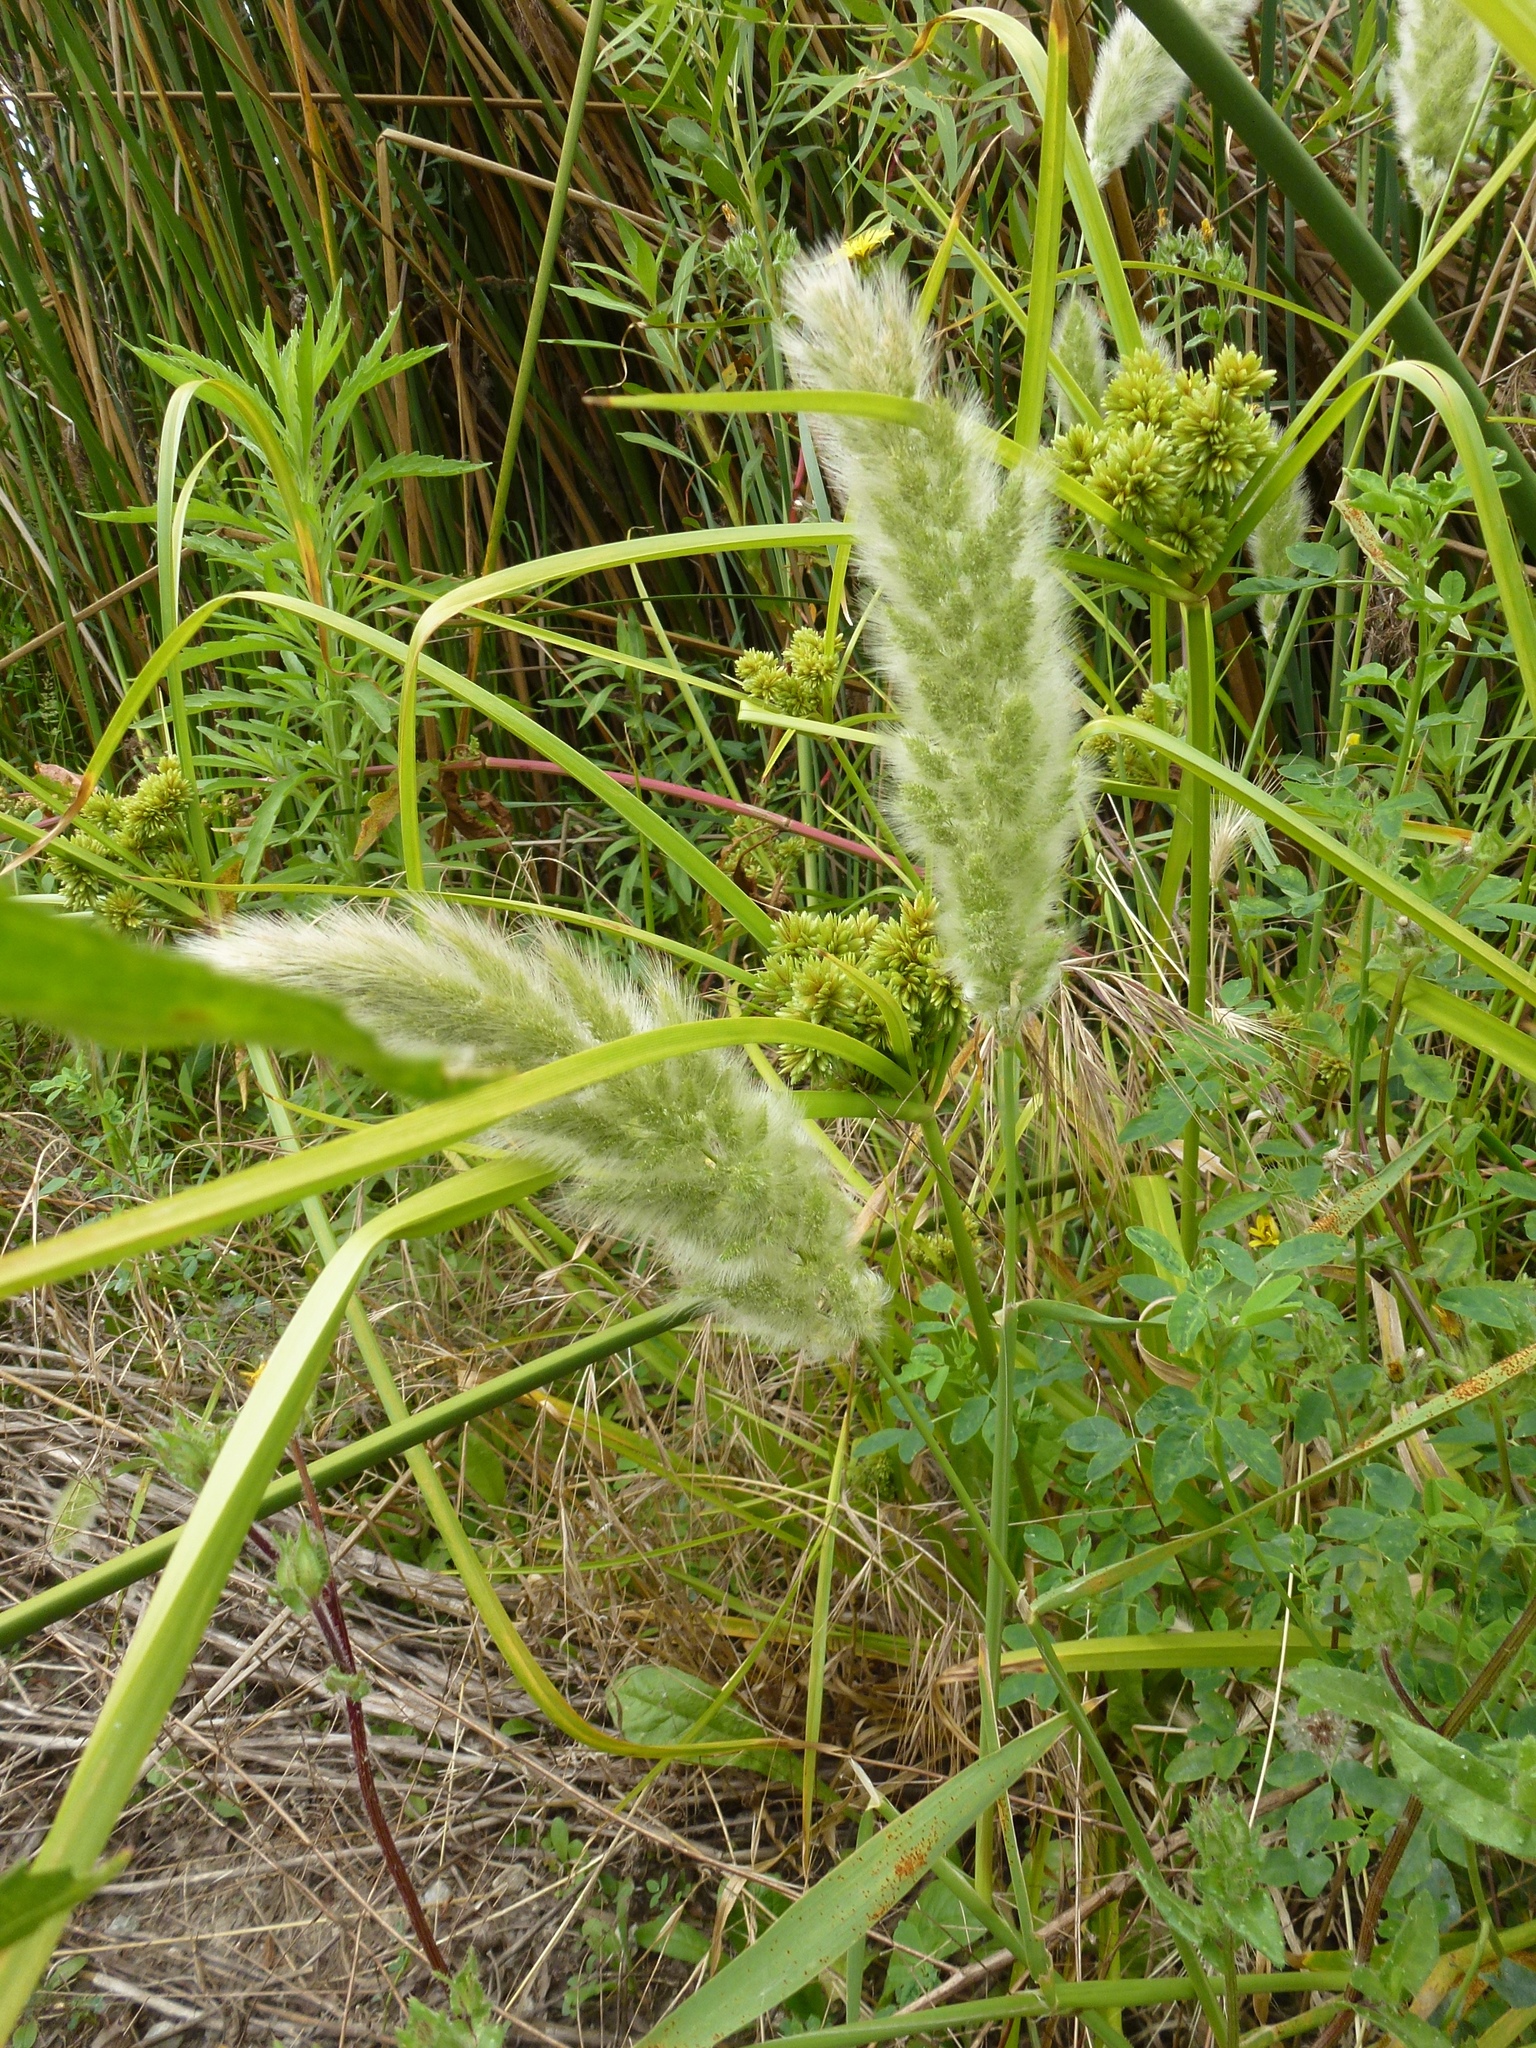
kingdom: Plantae
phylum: Tracheophyta
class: Liliopsida
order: Poales
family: Poaceae
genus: Polypogon
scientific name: Polypogon monspeliensis
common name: Annual rabbitsfoot grass
